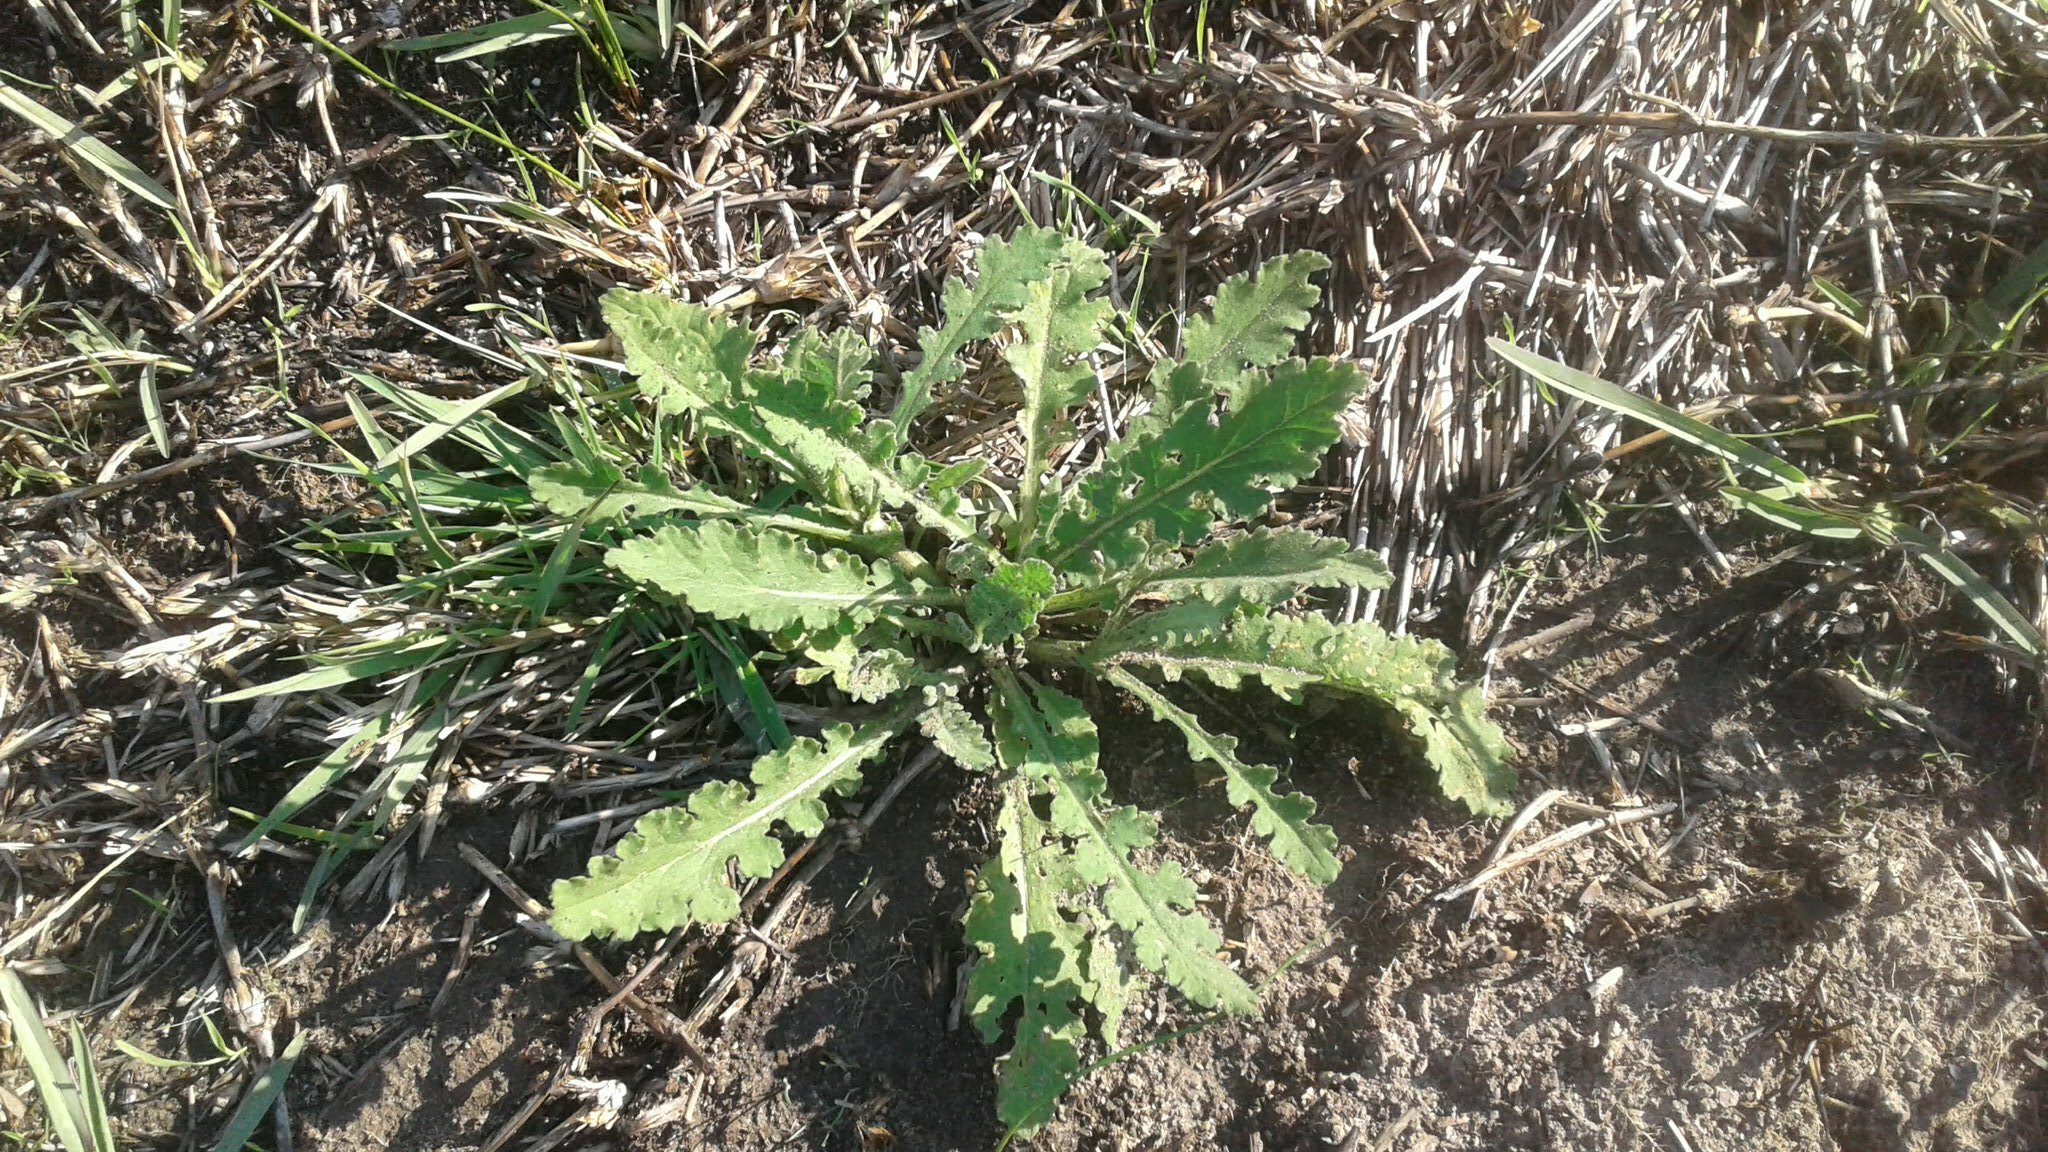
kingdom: Plantae
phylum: Tracheophyta
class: Magnoliopsida
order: Asterales
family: Asteraceae
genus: Senecio
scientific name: Senecio hastatus
